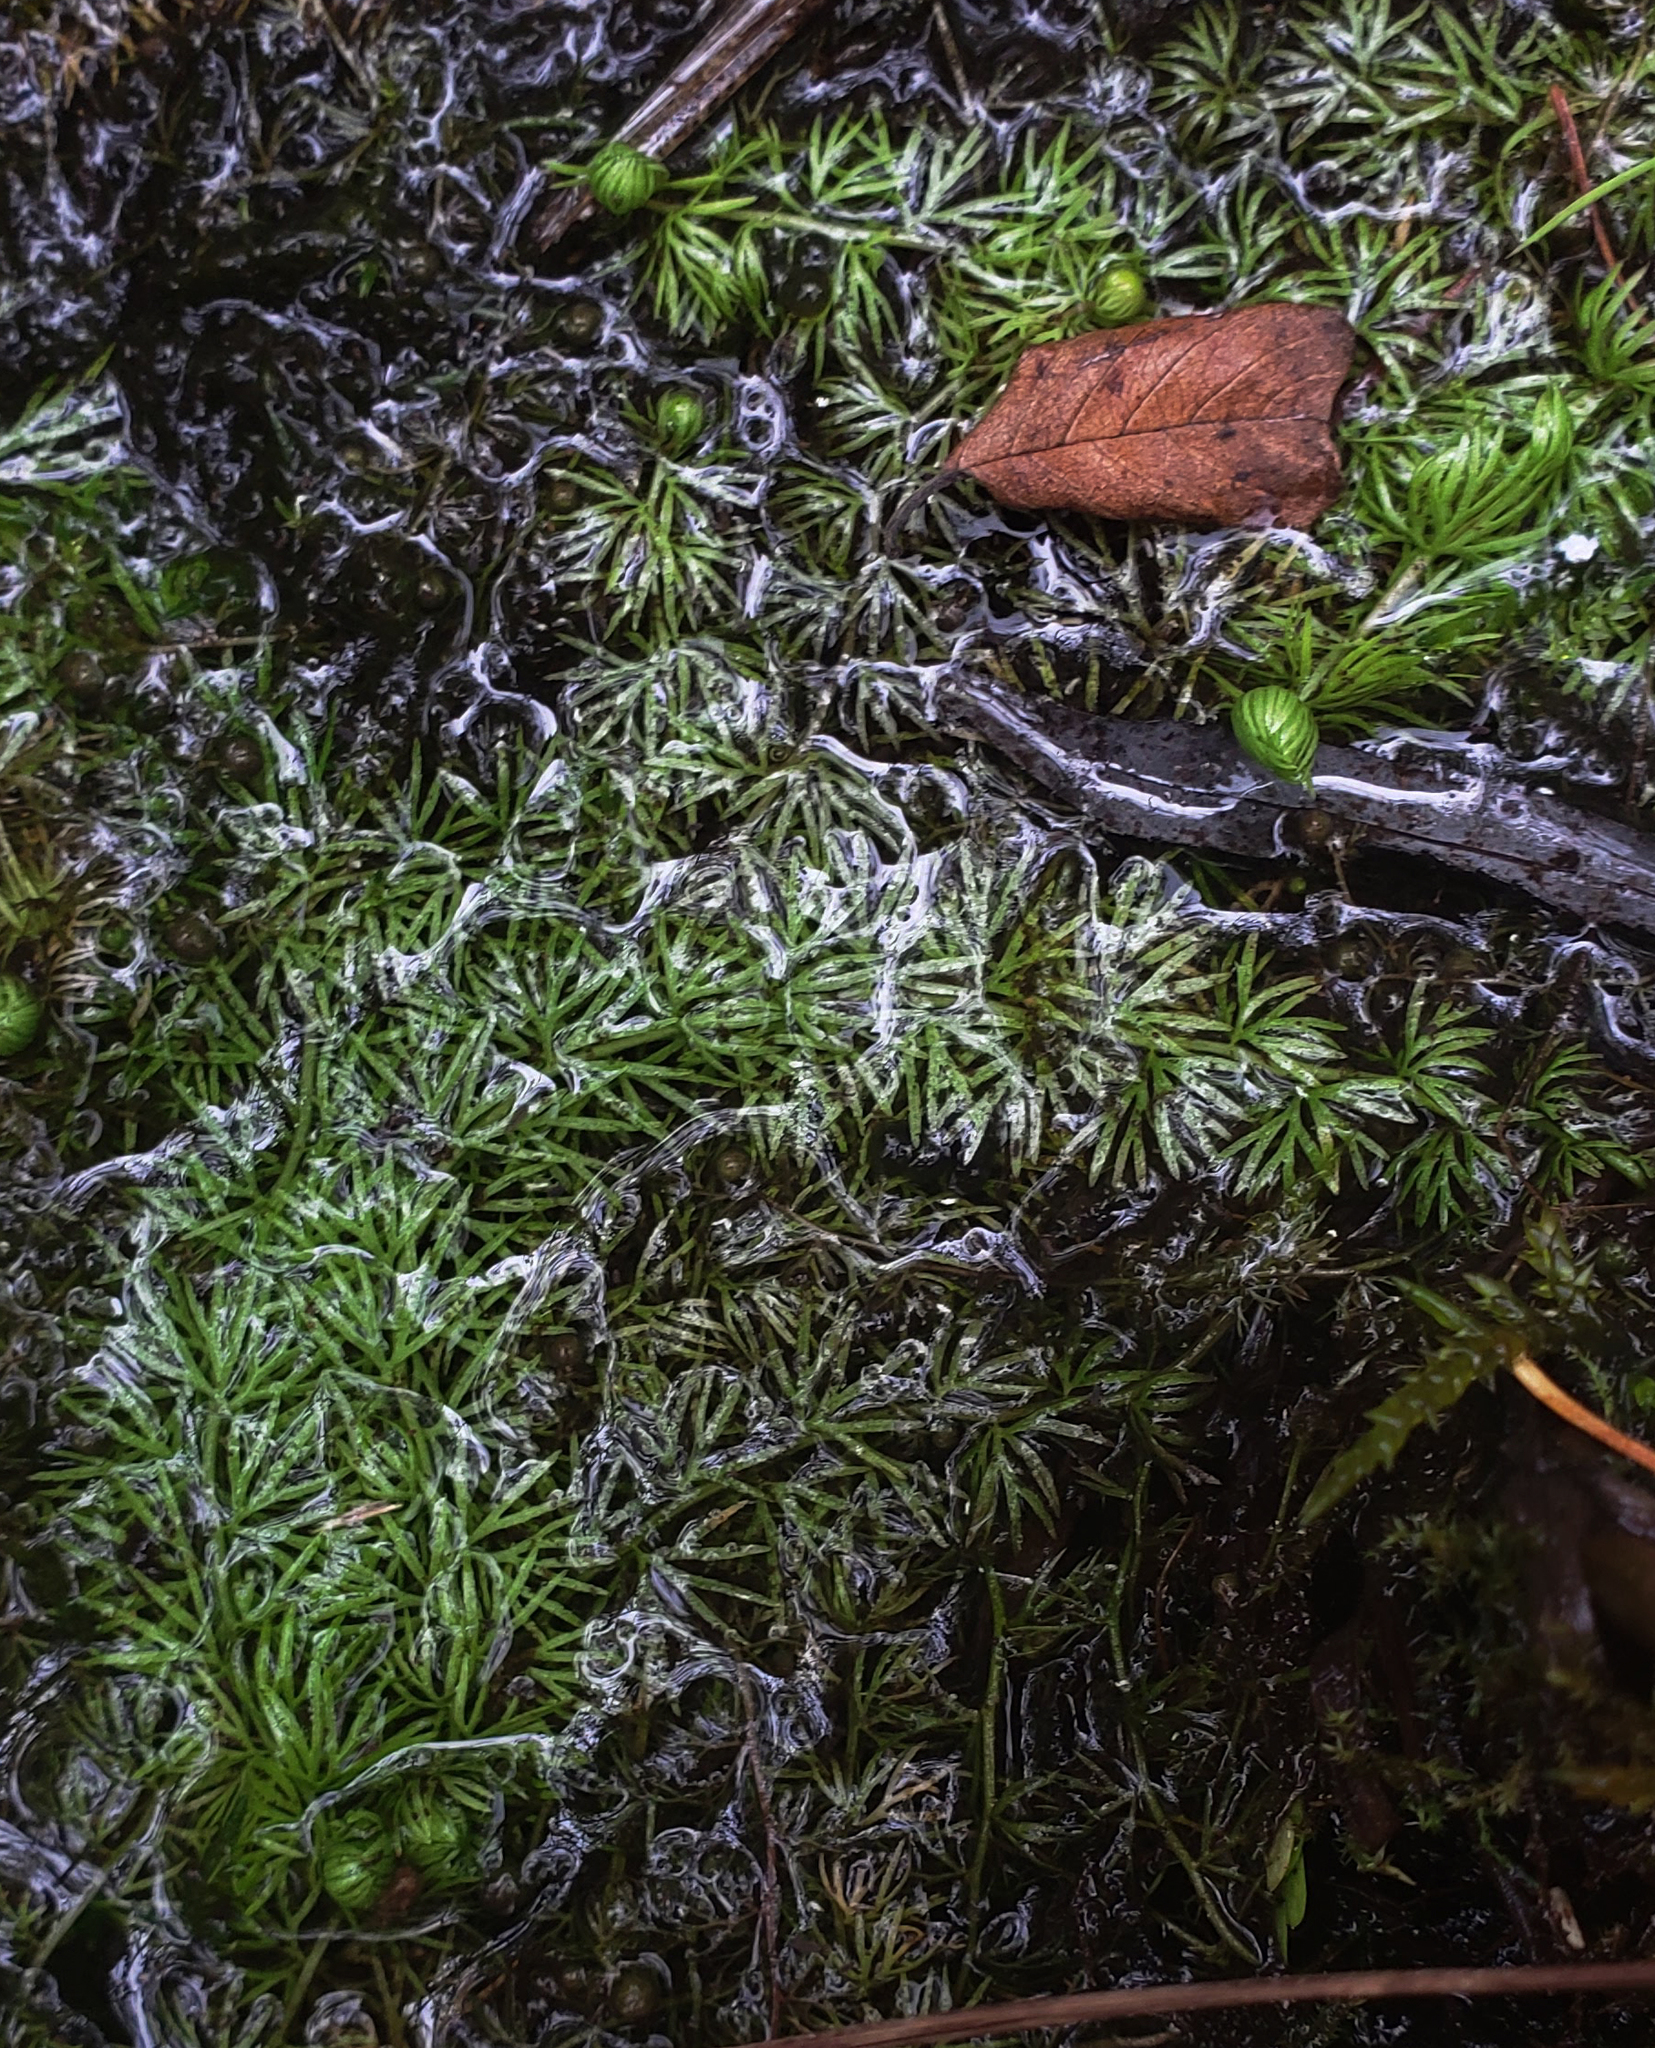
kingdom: Plantae
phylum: Tracheophyta
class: Magnoliopsida
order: Lamiales
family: Lentibulariaceae
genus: Utricularia
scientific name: Utricularia intermedia
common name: Intermediate bladderwort
